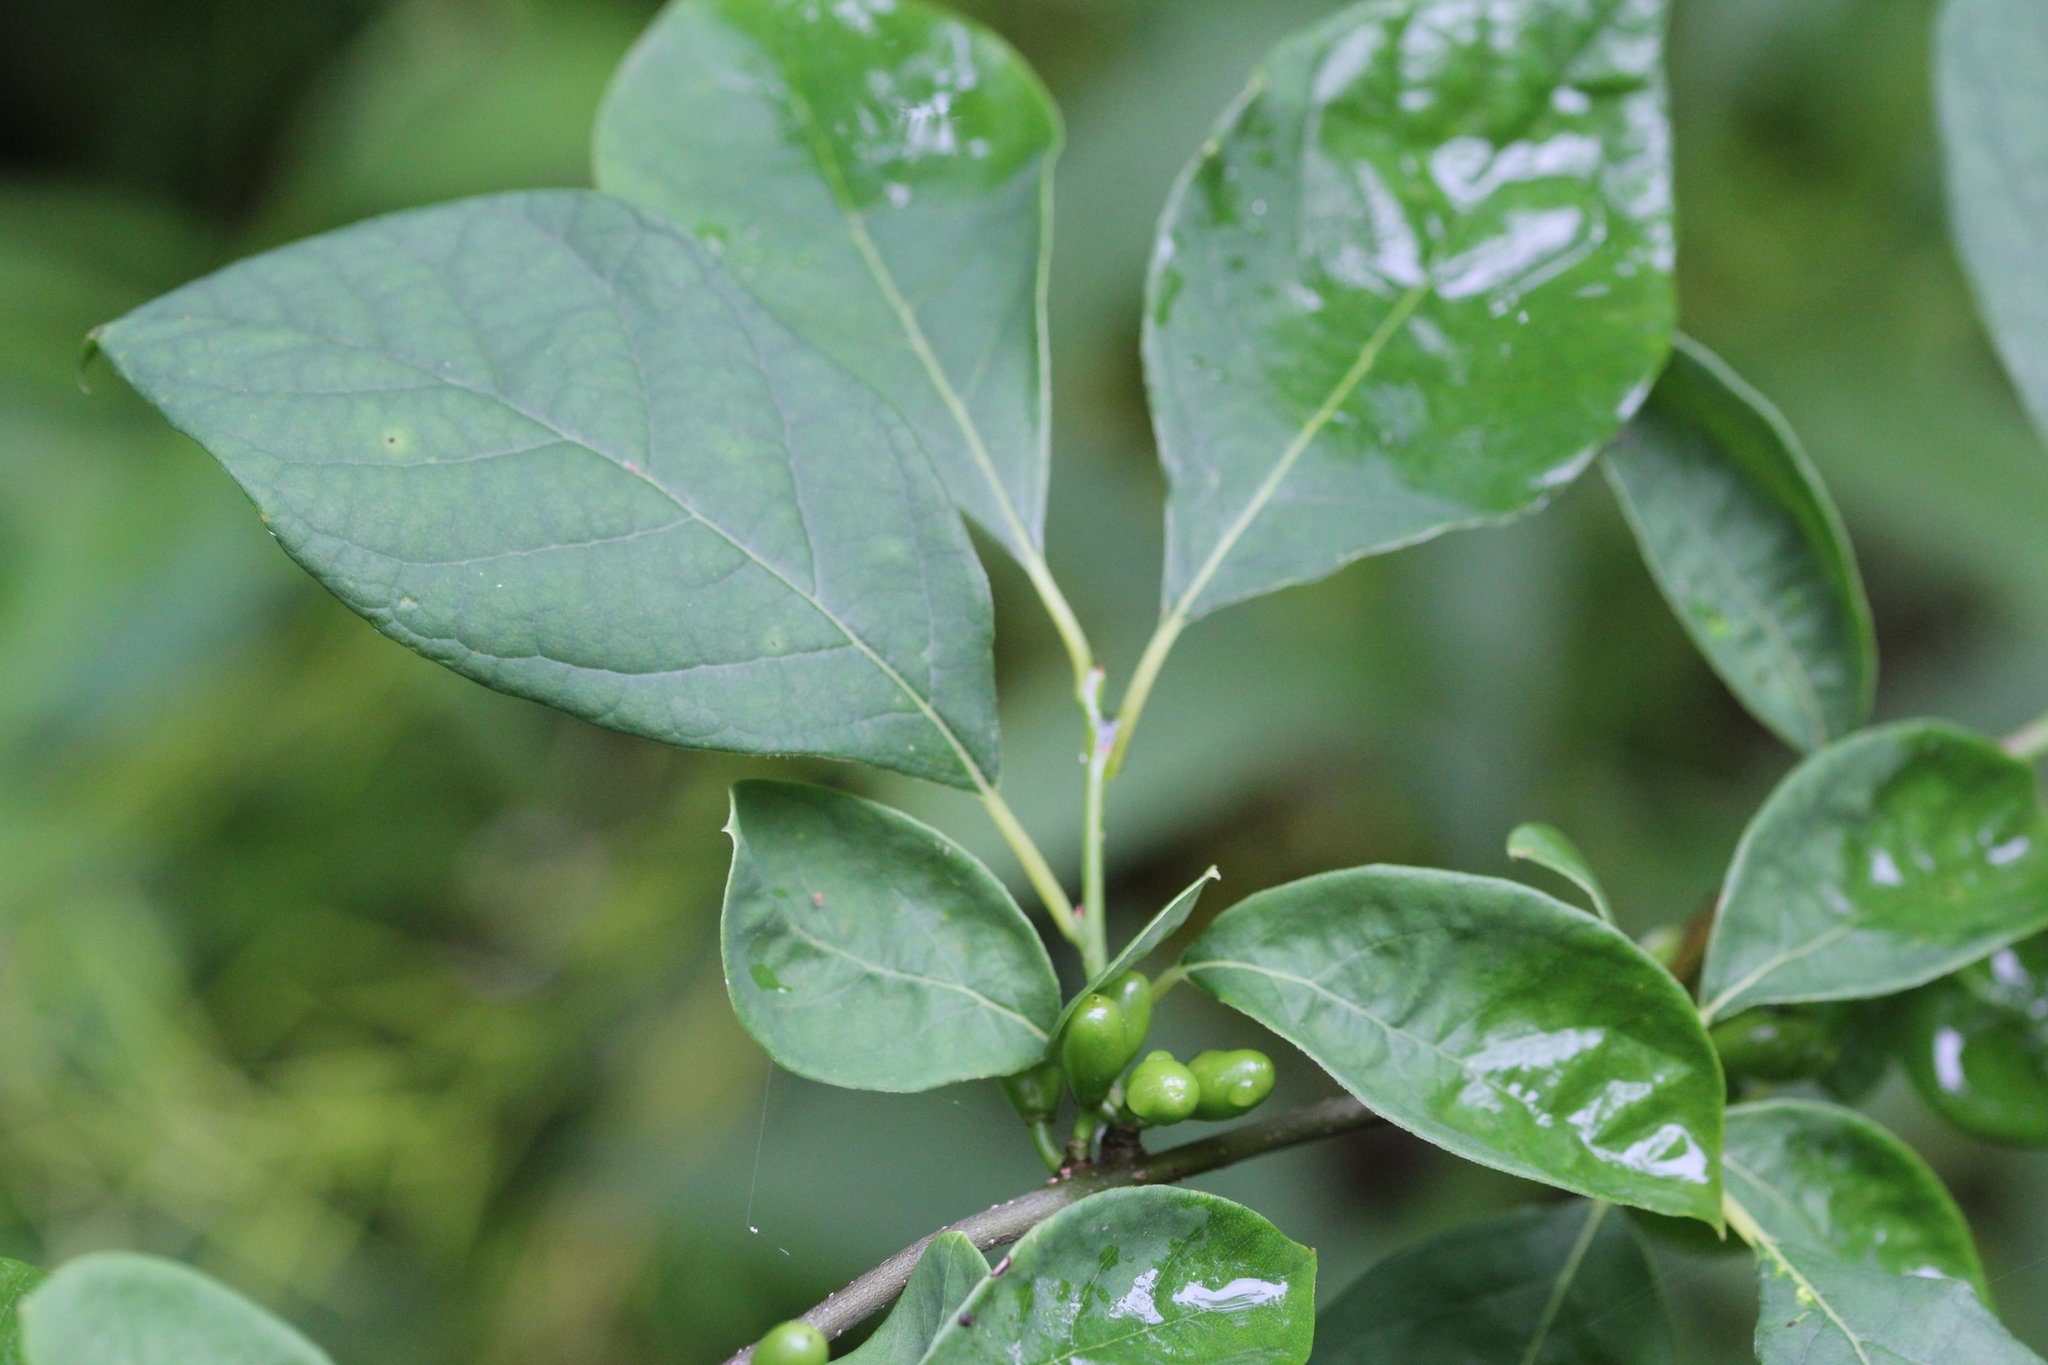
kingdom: Plantae
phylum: Tracheophyta
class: Magnoliopsida
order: Laurales
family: Lauraceae
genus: Lindera
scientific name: Lindera benzoin
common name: Spicebush
